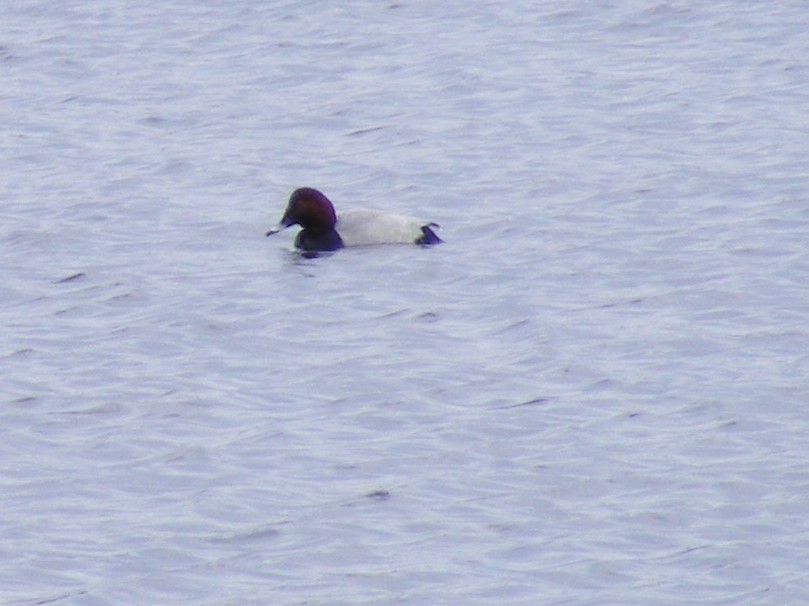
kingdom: Animalia
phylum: Chordata
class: Aves
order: Anseriformes
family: Anatidae
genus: Aythya
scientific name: Aythya ferina
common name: Common pochard
